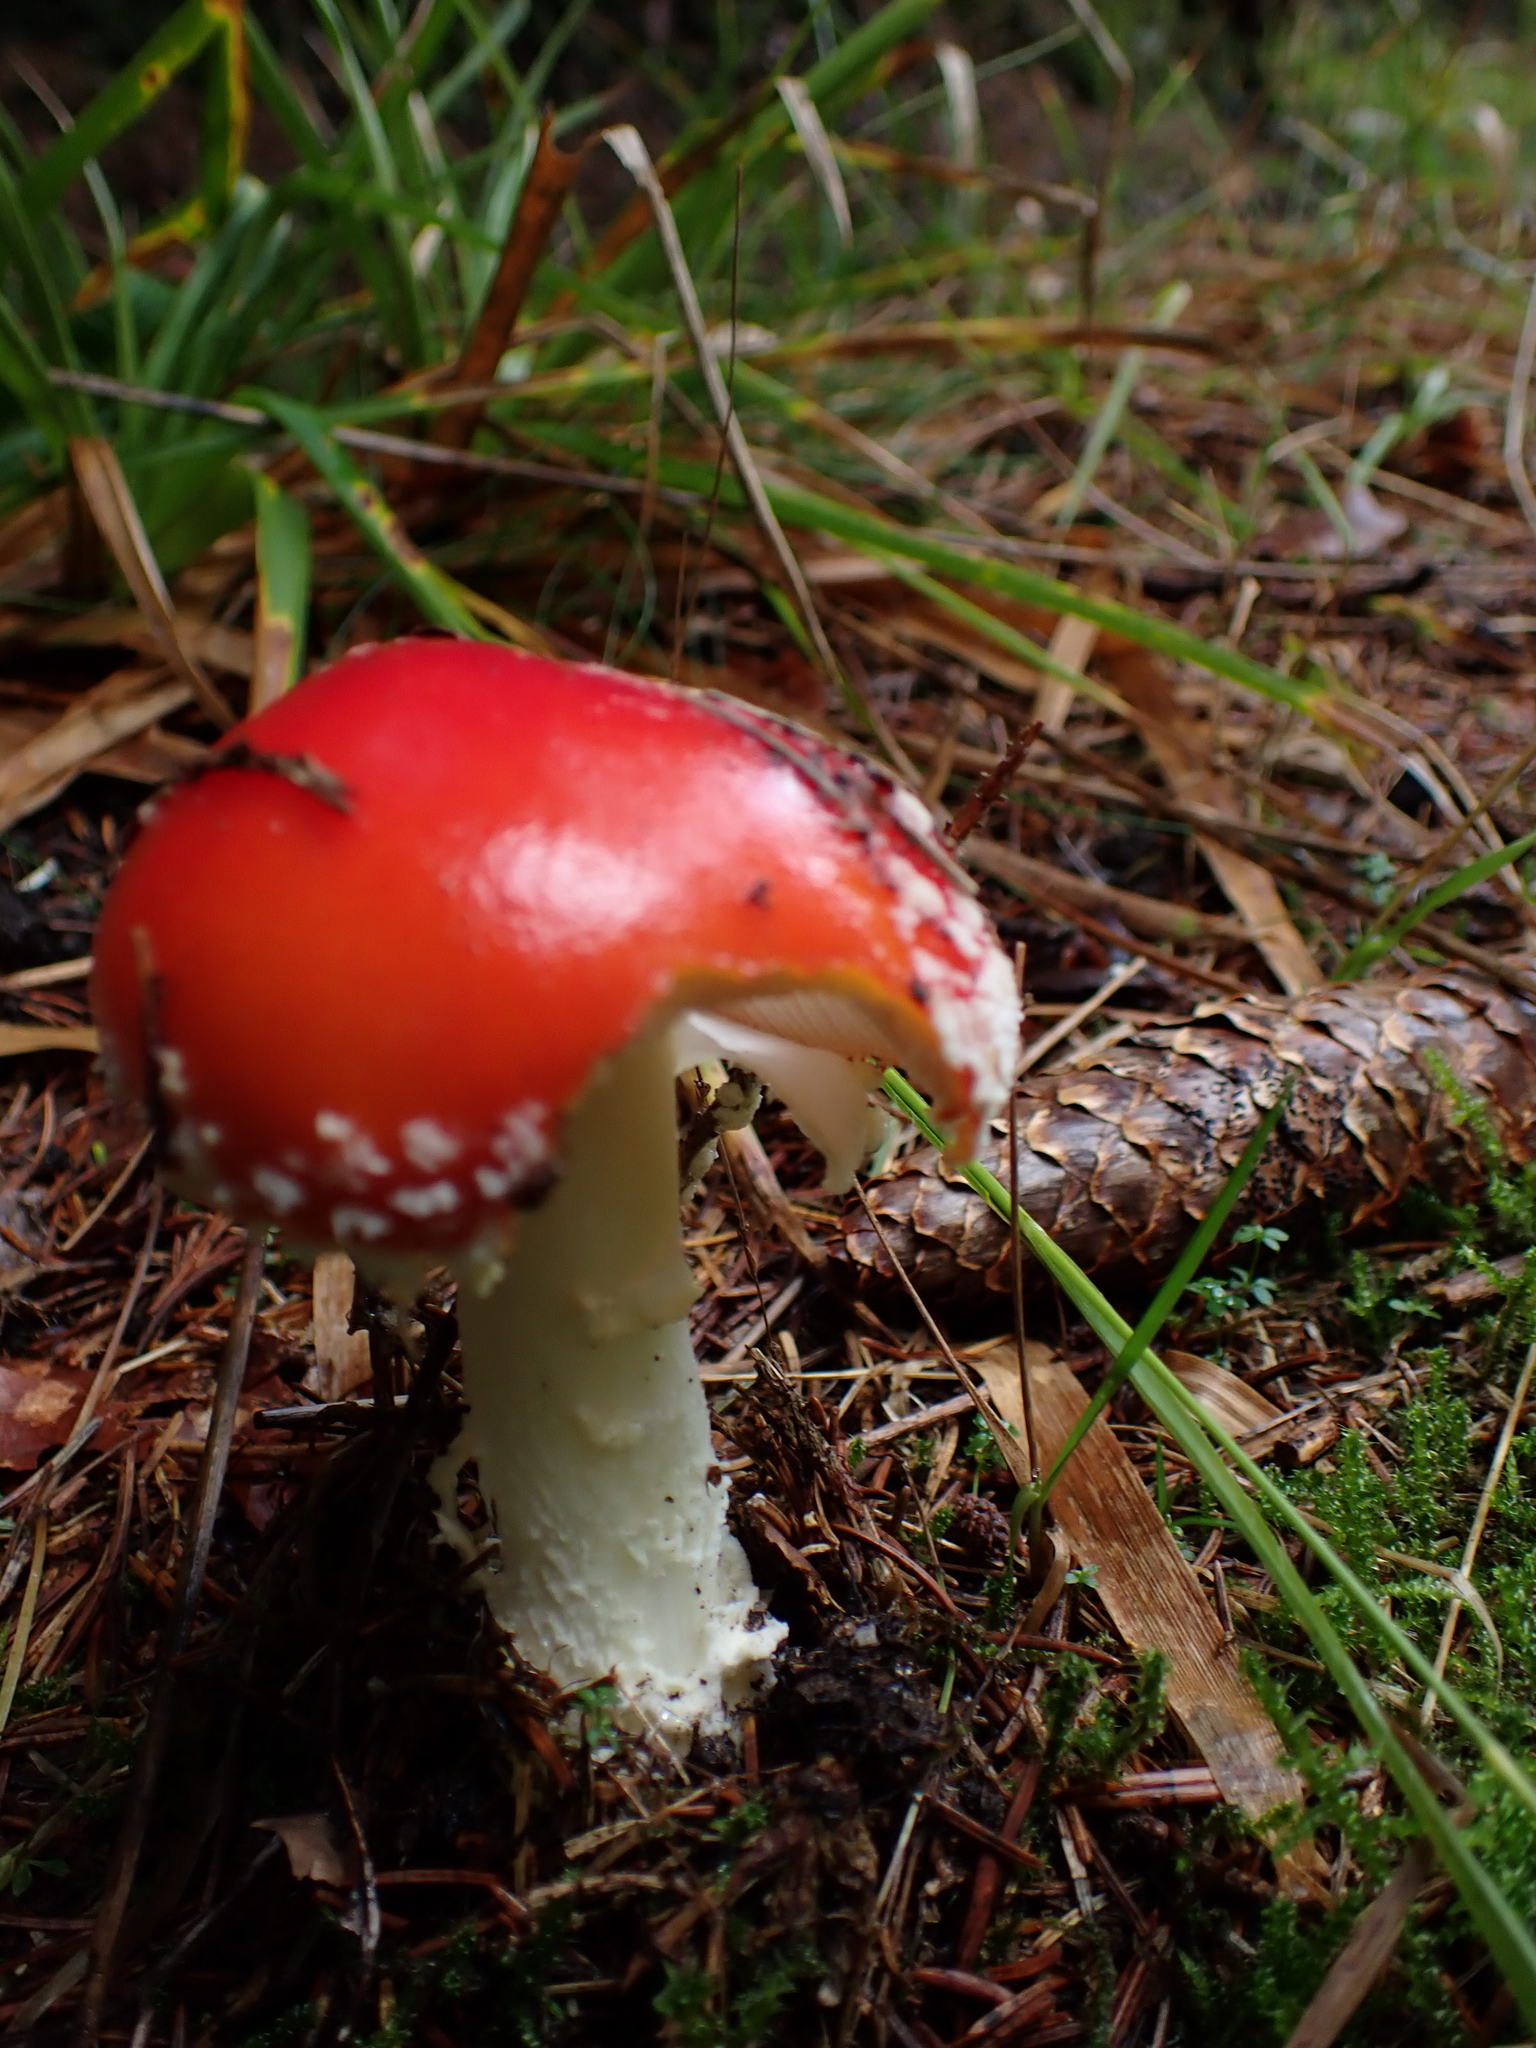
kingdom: Fungi
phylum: Basidiomycota
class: Agaricomycetes
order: Agaricales
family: Amanitaceae
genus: Amanita
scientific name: Amanita muscaria
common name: Fly agaric
